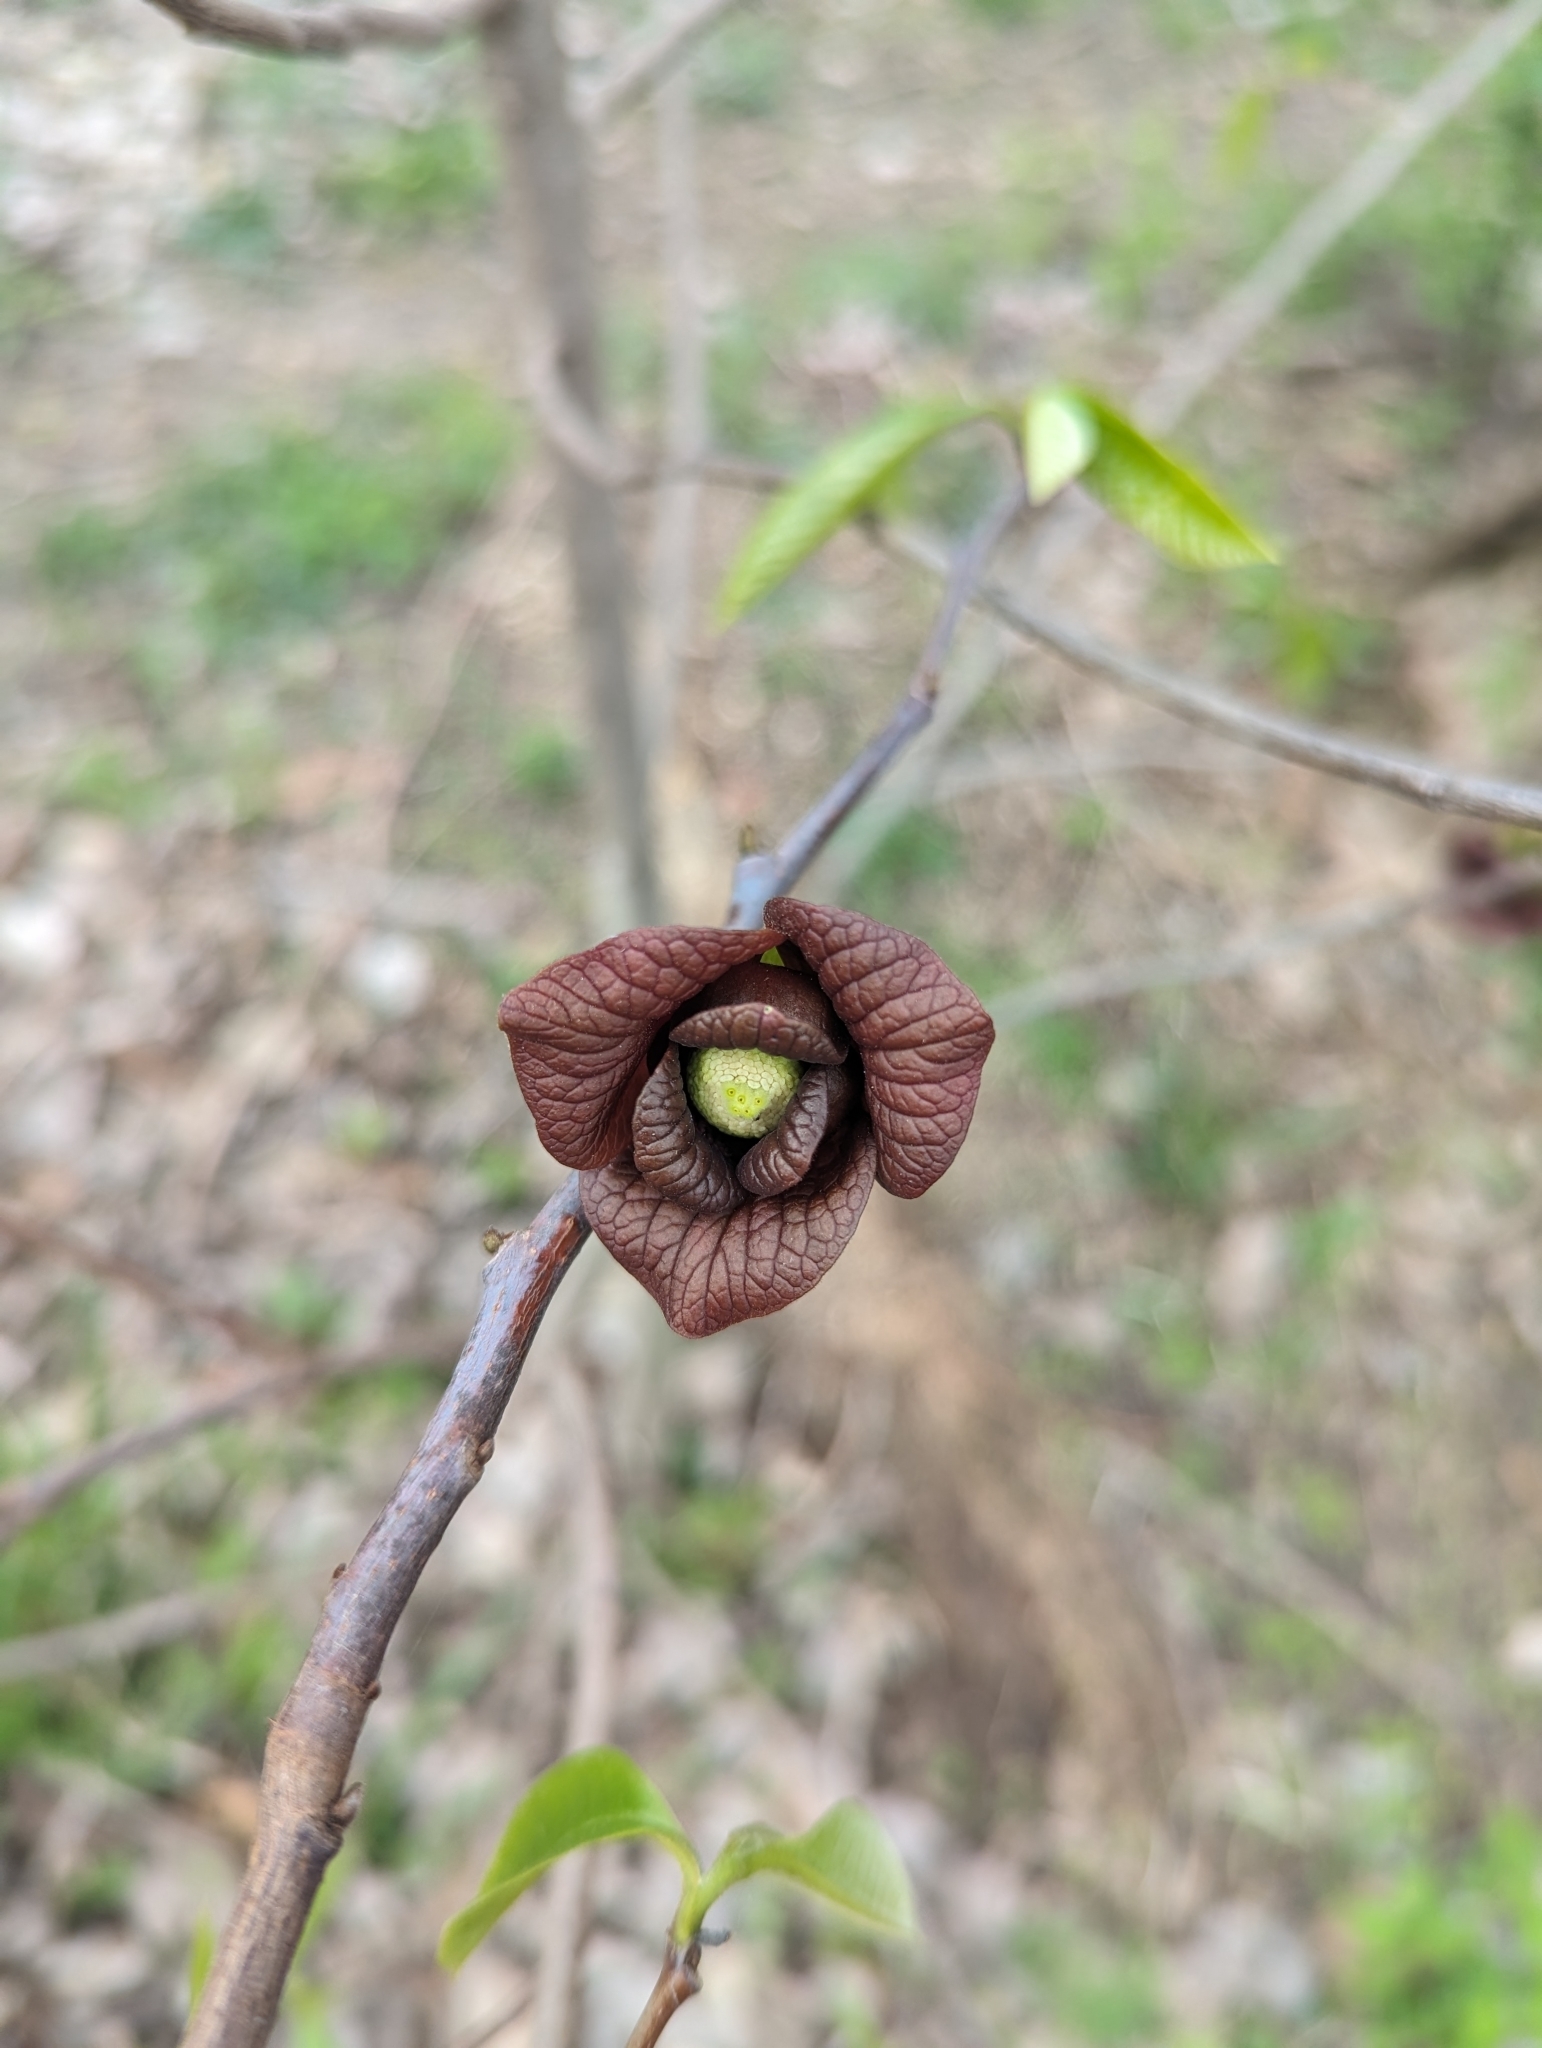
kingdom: Plantae
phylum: Tracheophyta
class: Magnoliopsida
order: Magnoliales
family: Annonaceae
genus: Asimina
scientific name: Asimina triloba
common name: Dog-banana
